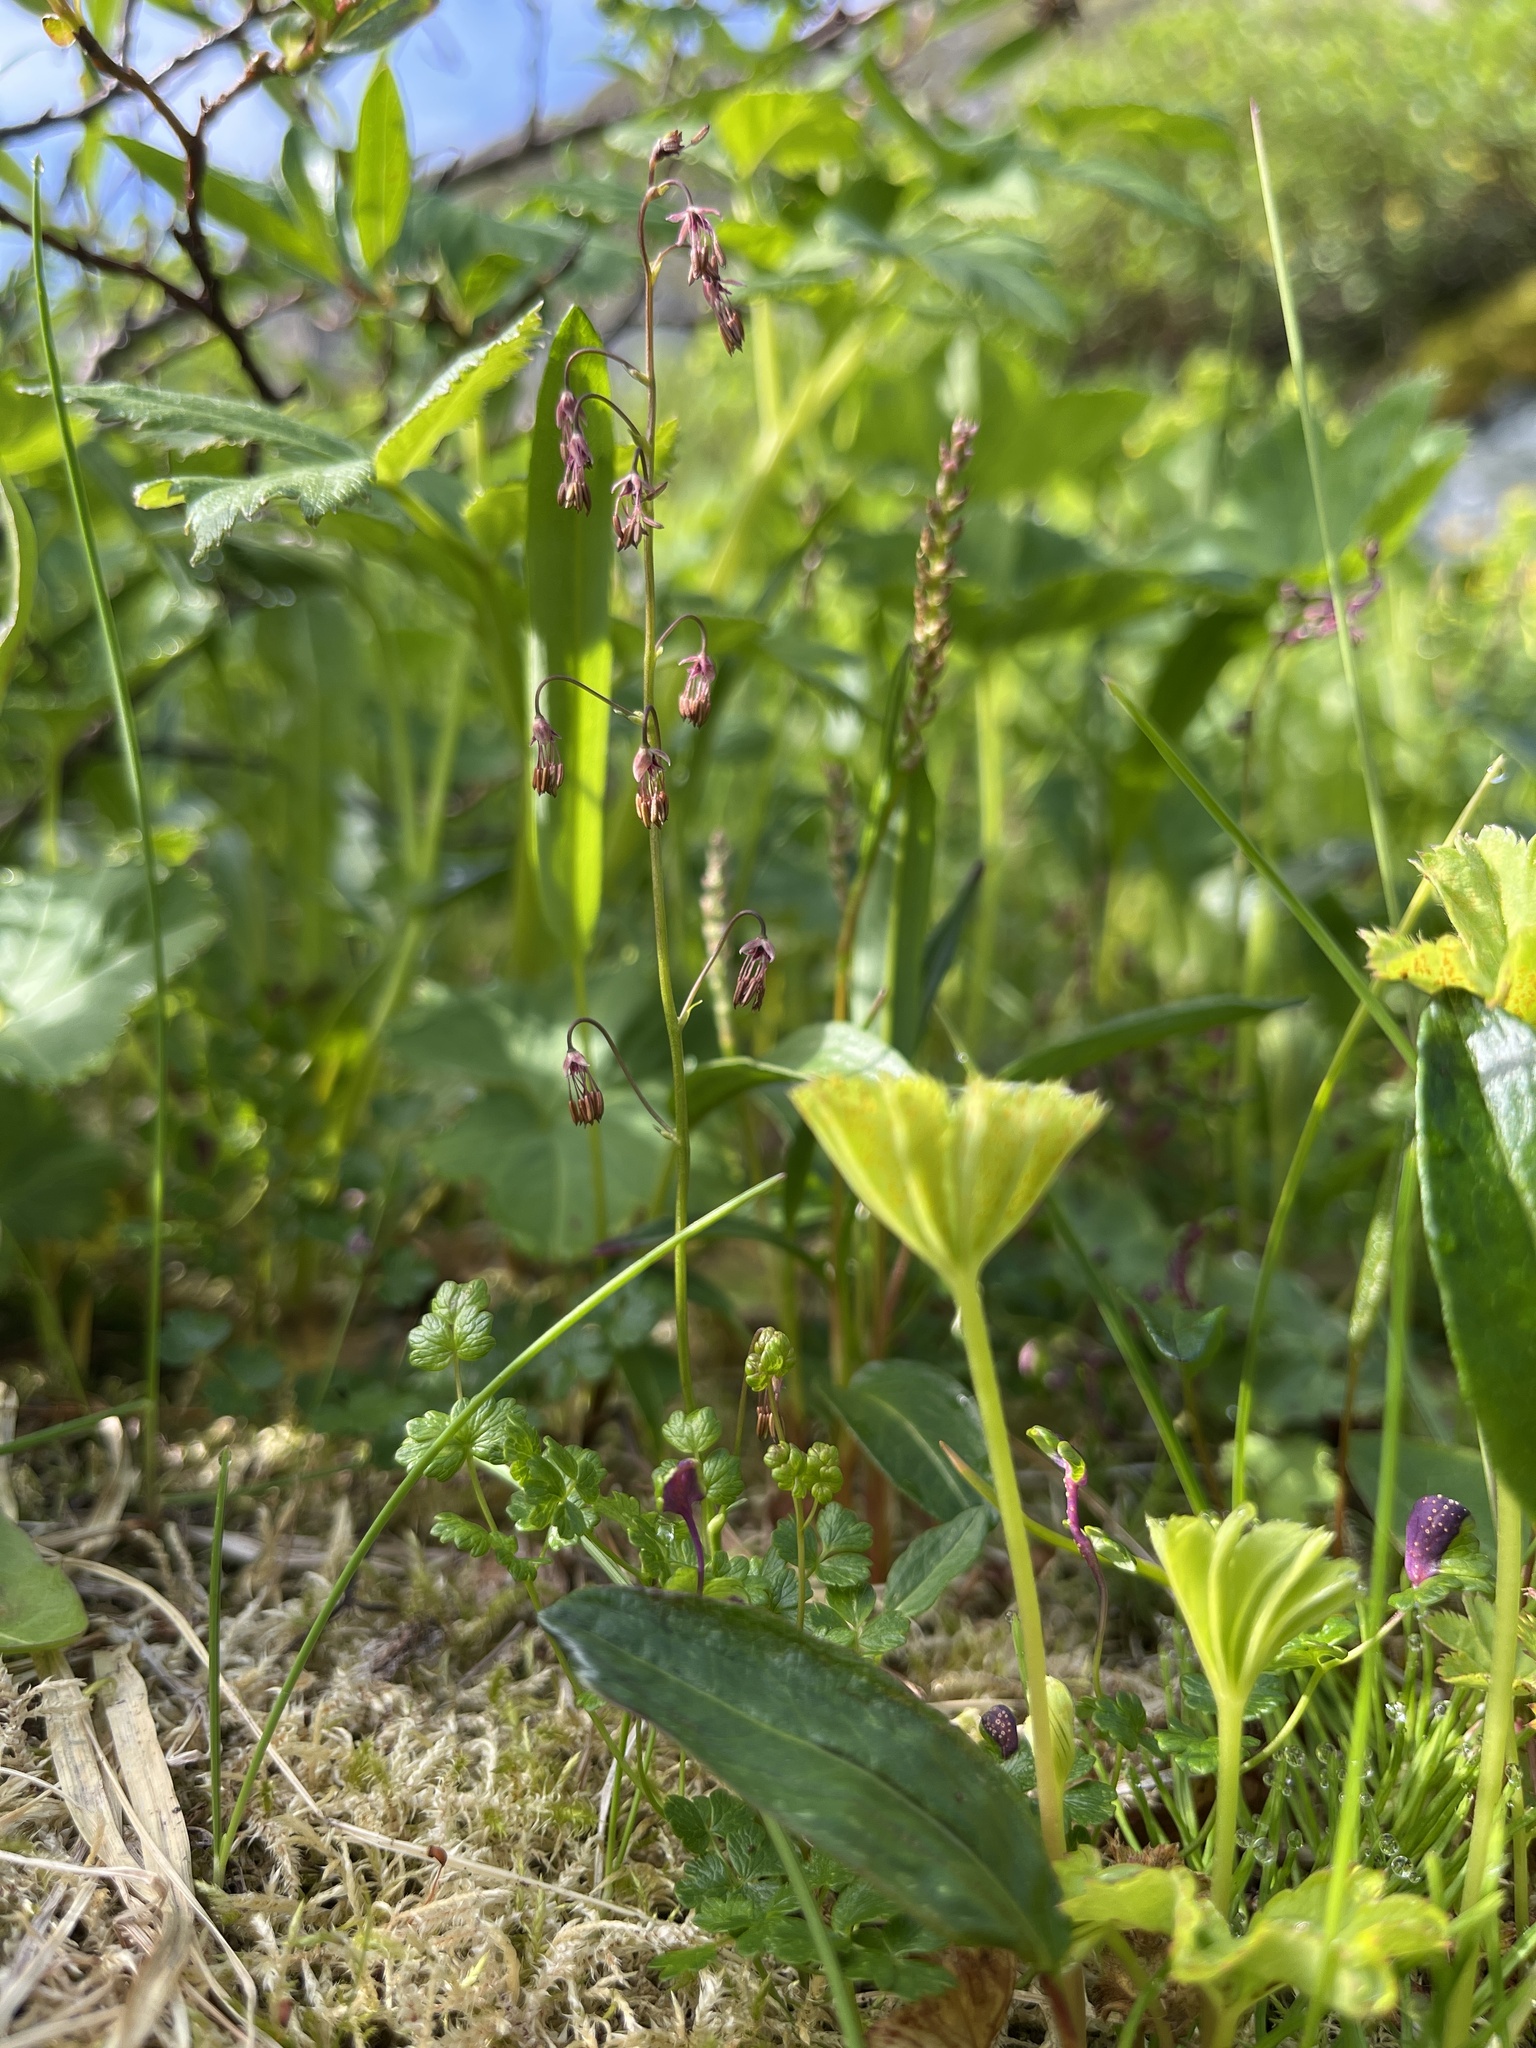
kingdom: Plantae
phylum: Tracheophyta
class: Magnoliopsida
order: Ranunculales
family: Ranunculaceae
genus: Thalictrum
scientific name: Thalictrum alpinum
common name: Alpine meadow-rue
